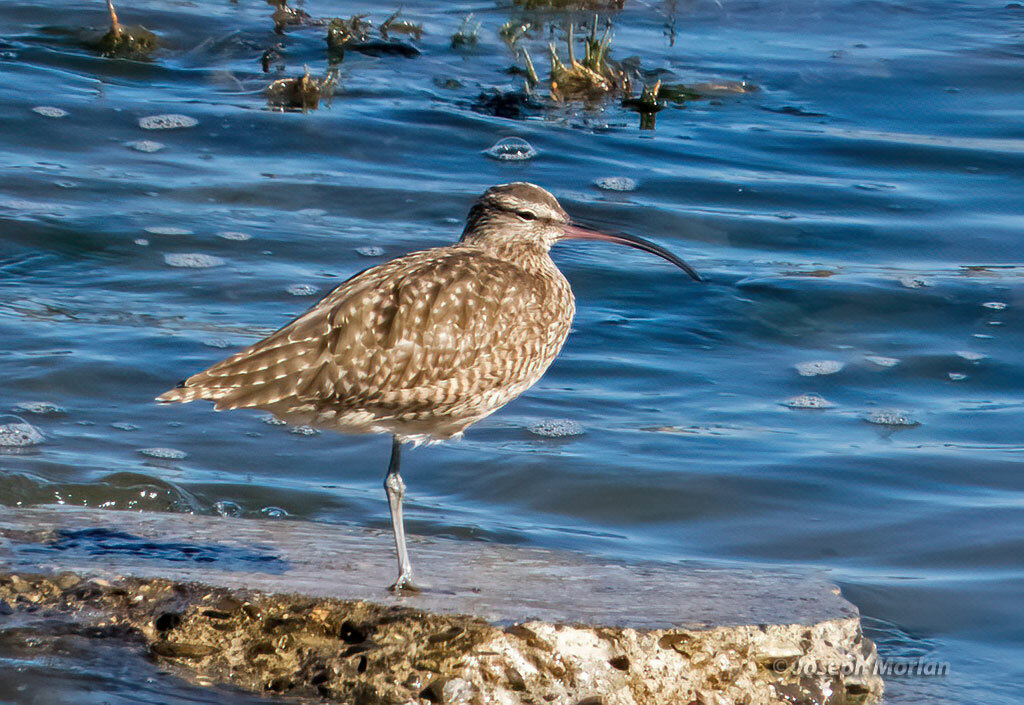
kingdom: Animalia
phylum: Chordata
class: Aves
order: Charadriiformes
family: Scolopacidae
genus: Numenius
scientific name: Numenius phaeopus
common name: Whimbrel
